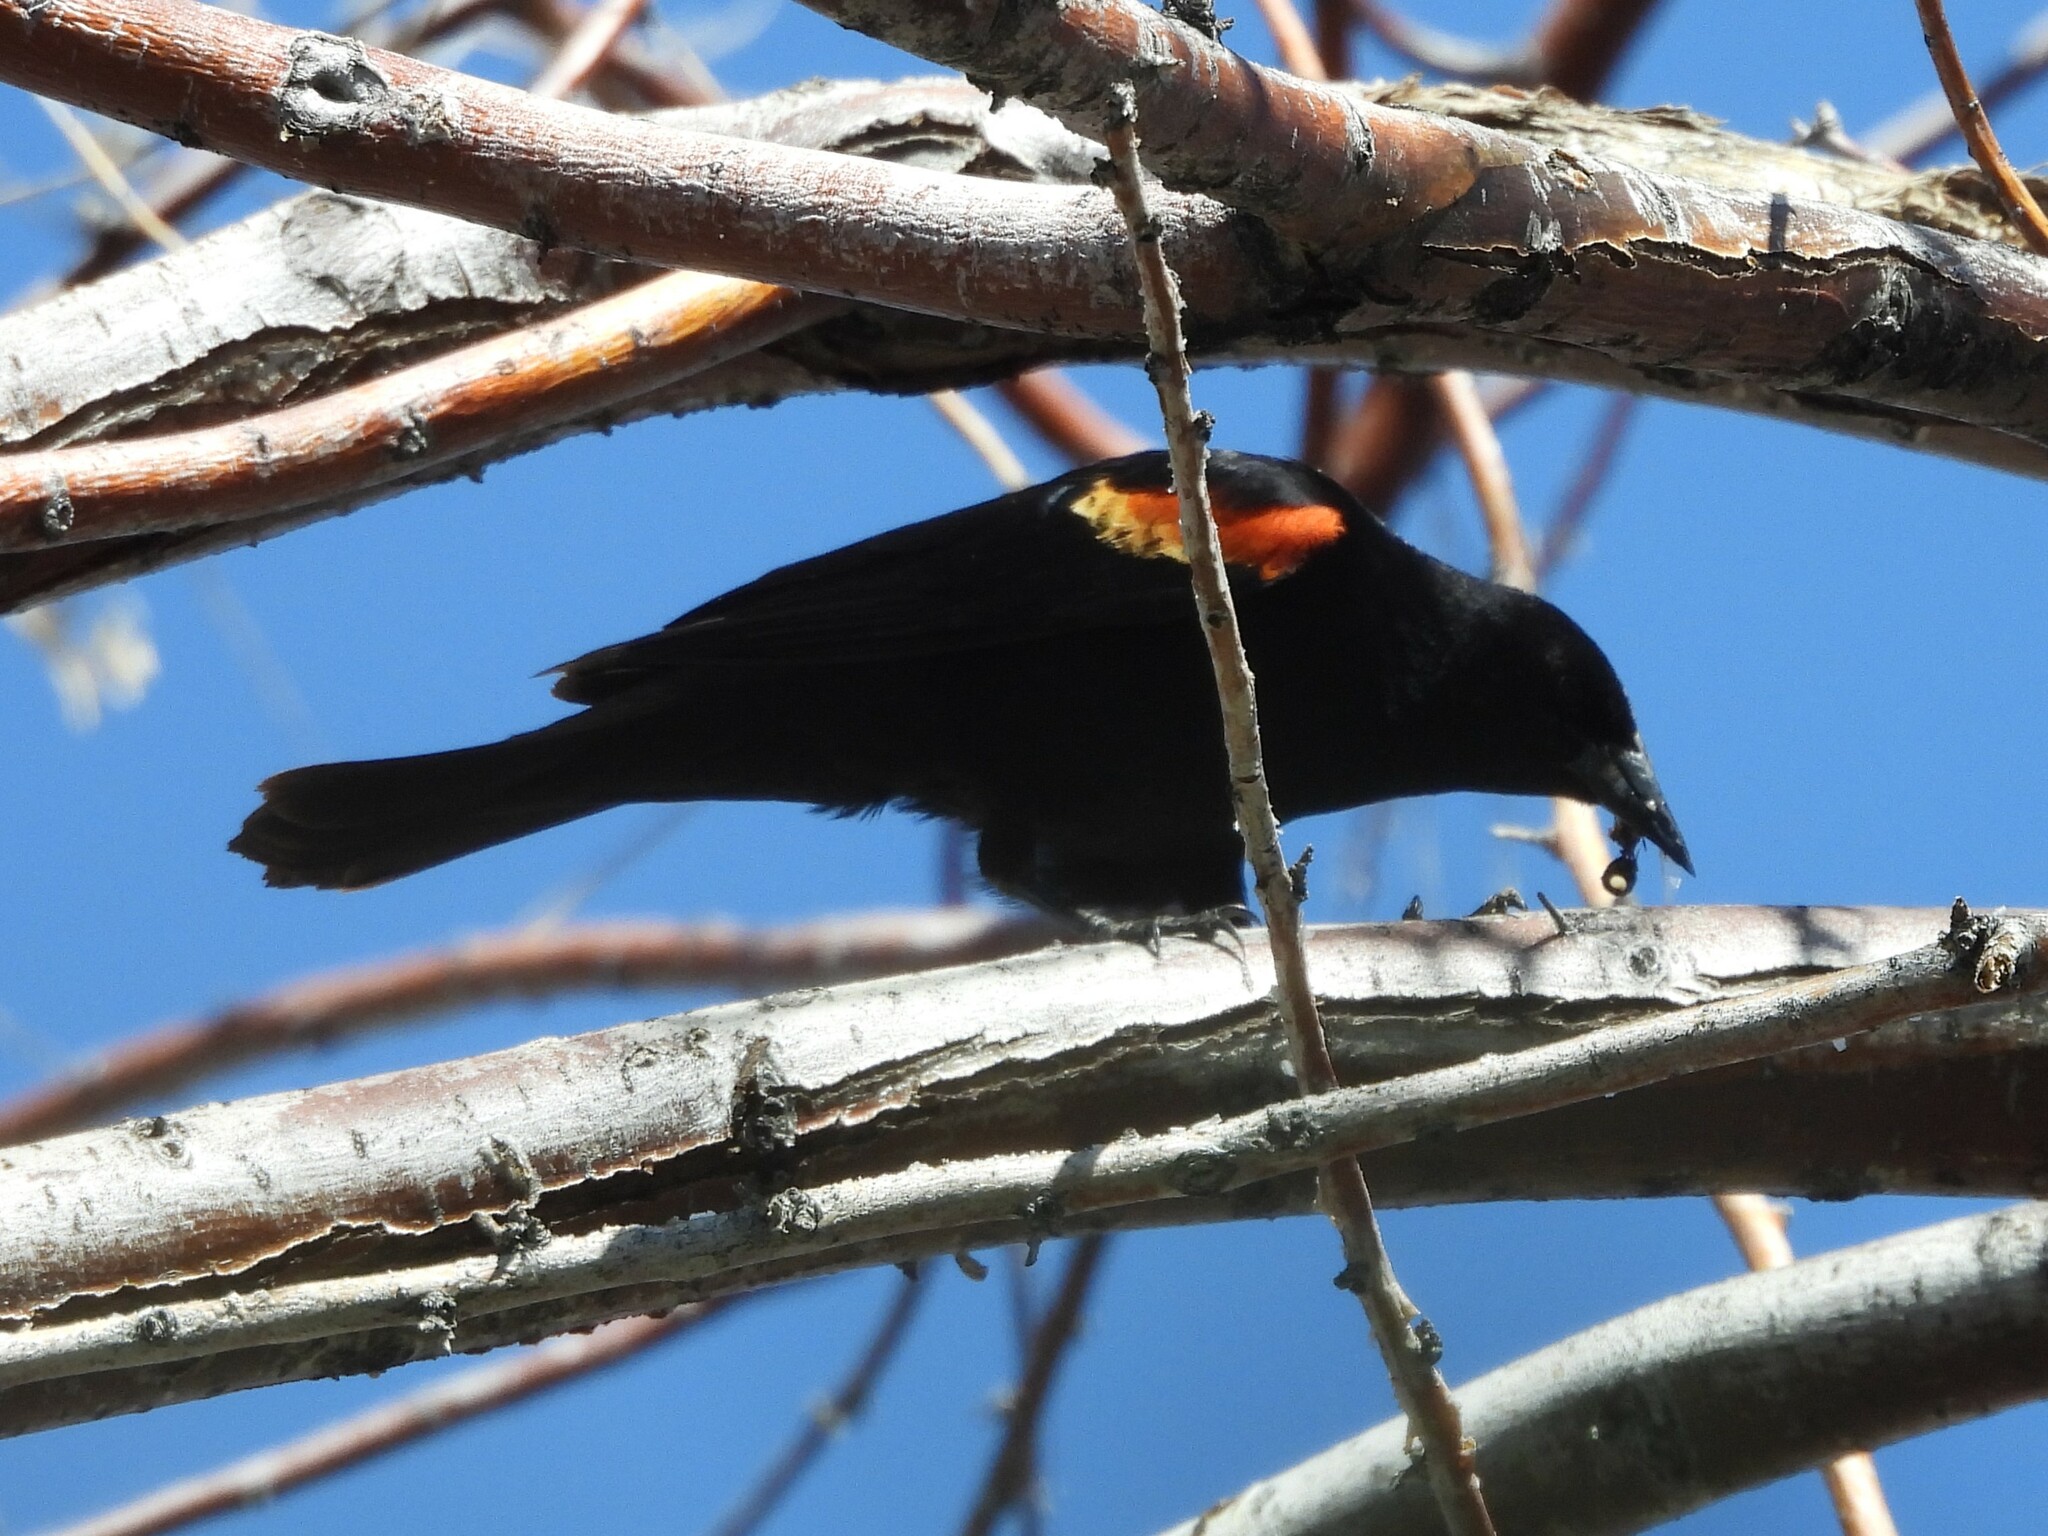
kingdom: Animalia
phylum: Chordata
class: Aves
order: Passeriformes
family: Icteridae
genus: Agelaius
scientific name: Agelaius phoeniceus
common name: Red-winged blackbird
